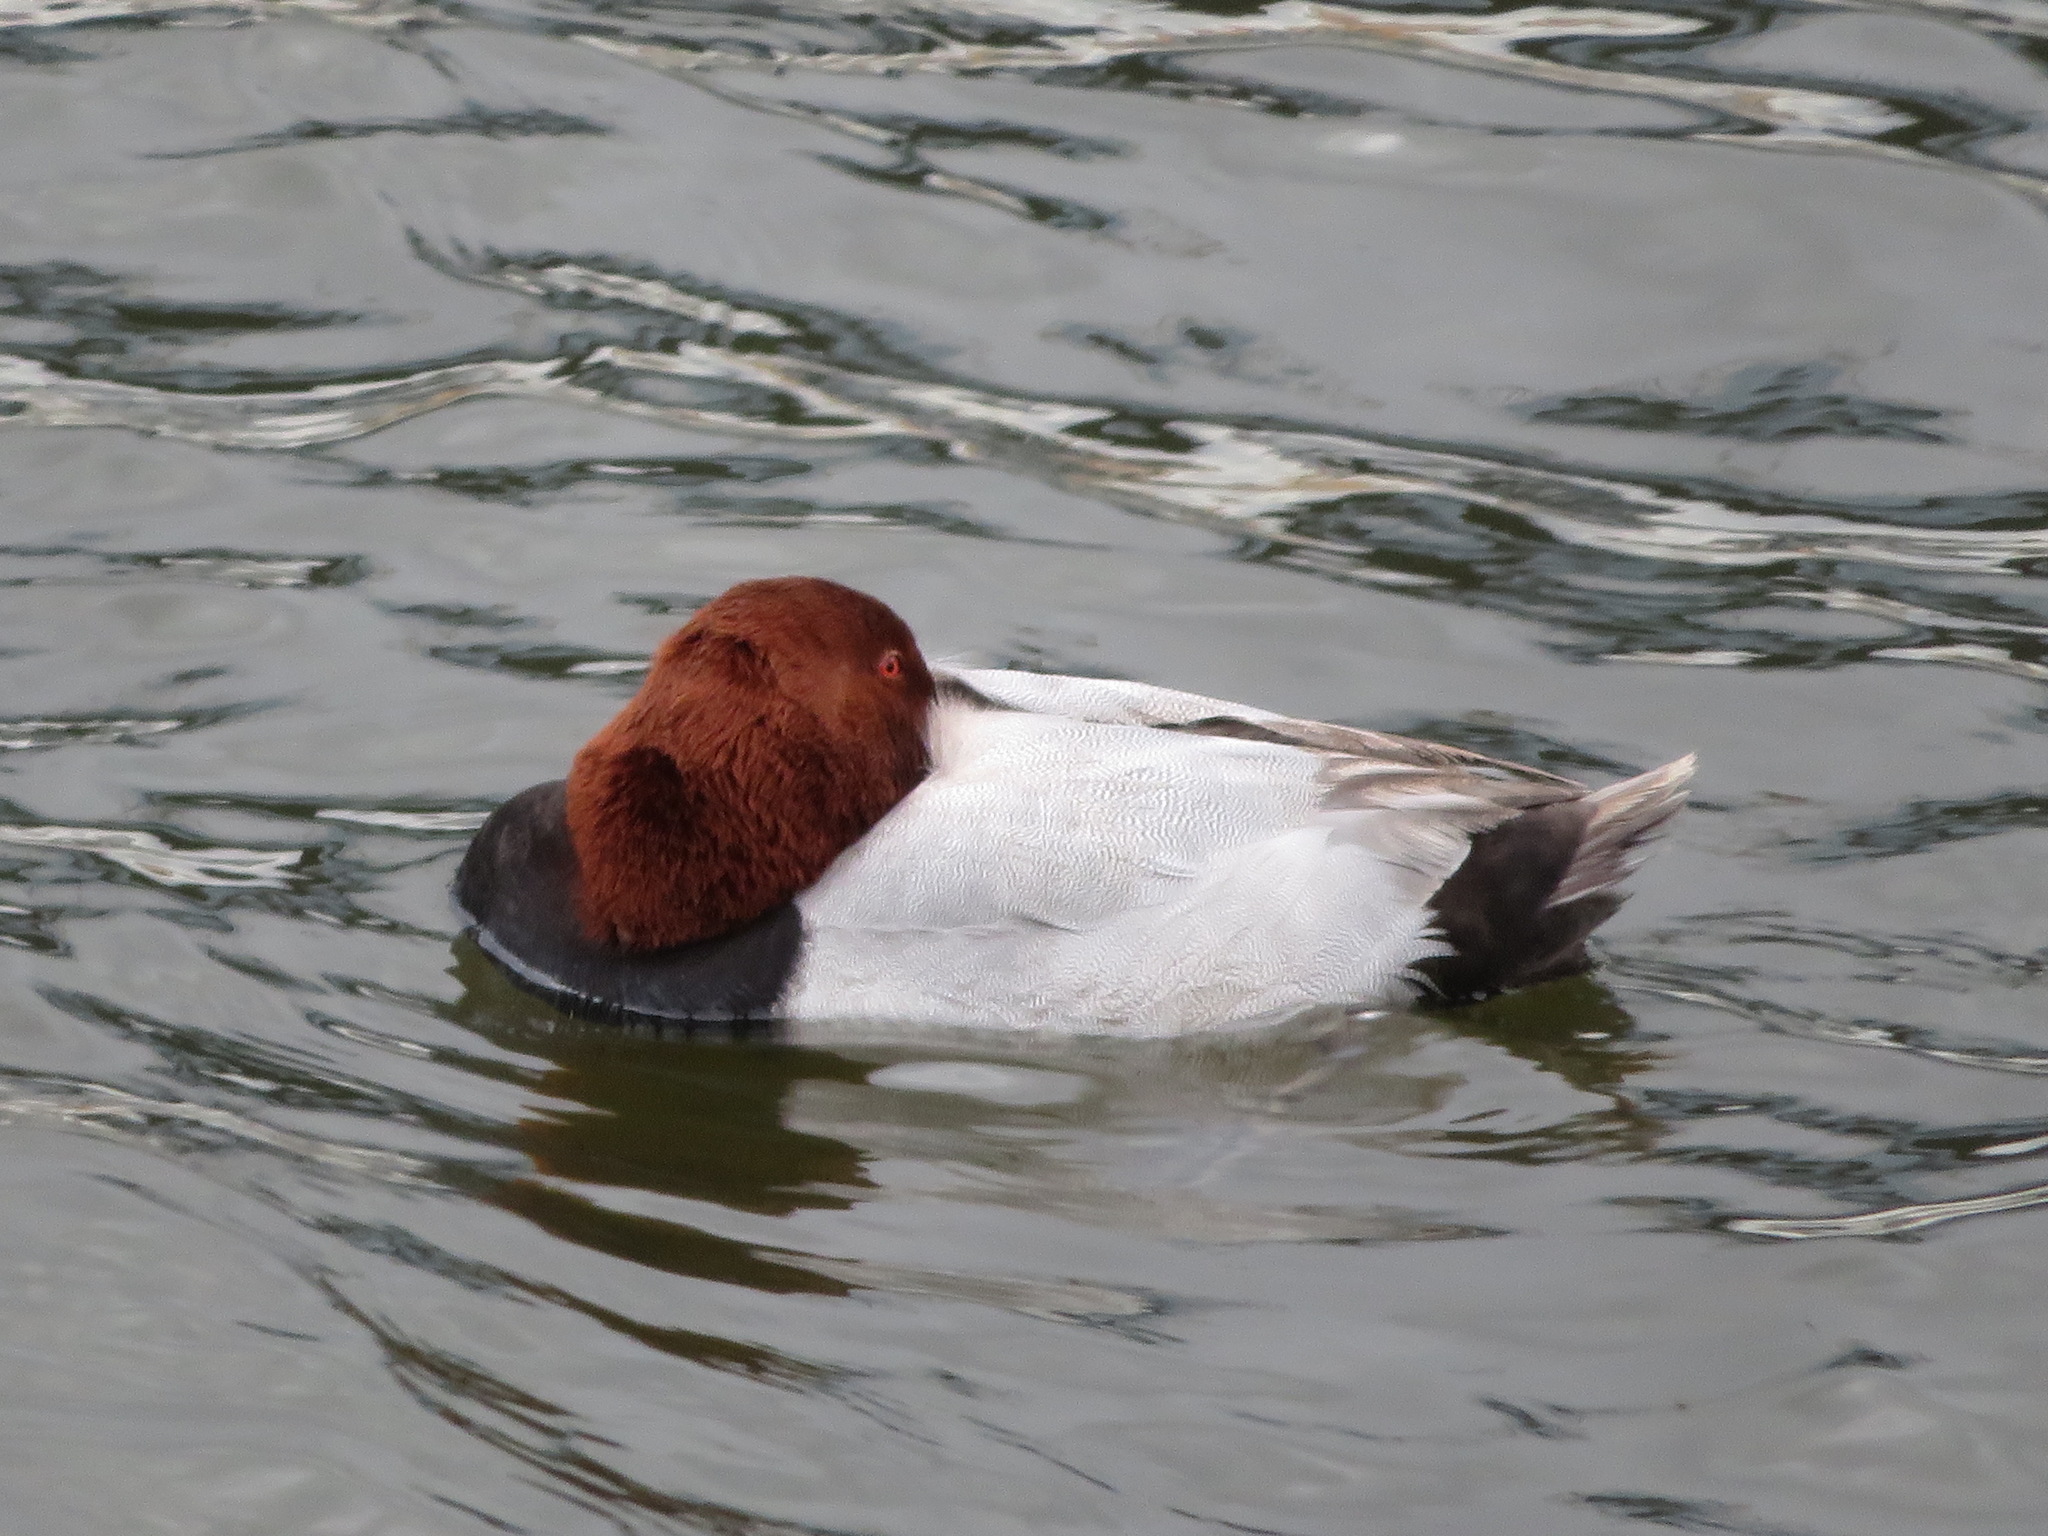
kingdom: Animalia
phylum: Chordata
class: Aves
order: Anseriformes
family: Anatidae
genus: Aythya
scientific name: Aythya ferina
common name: Common pochard
